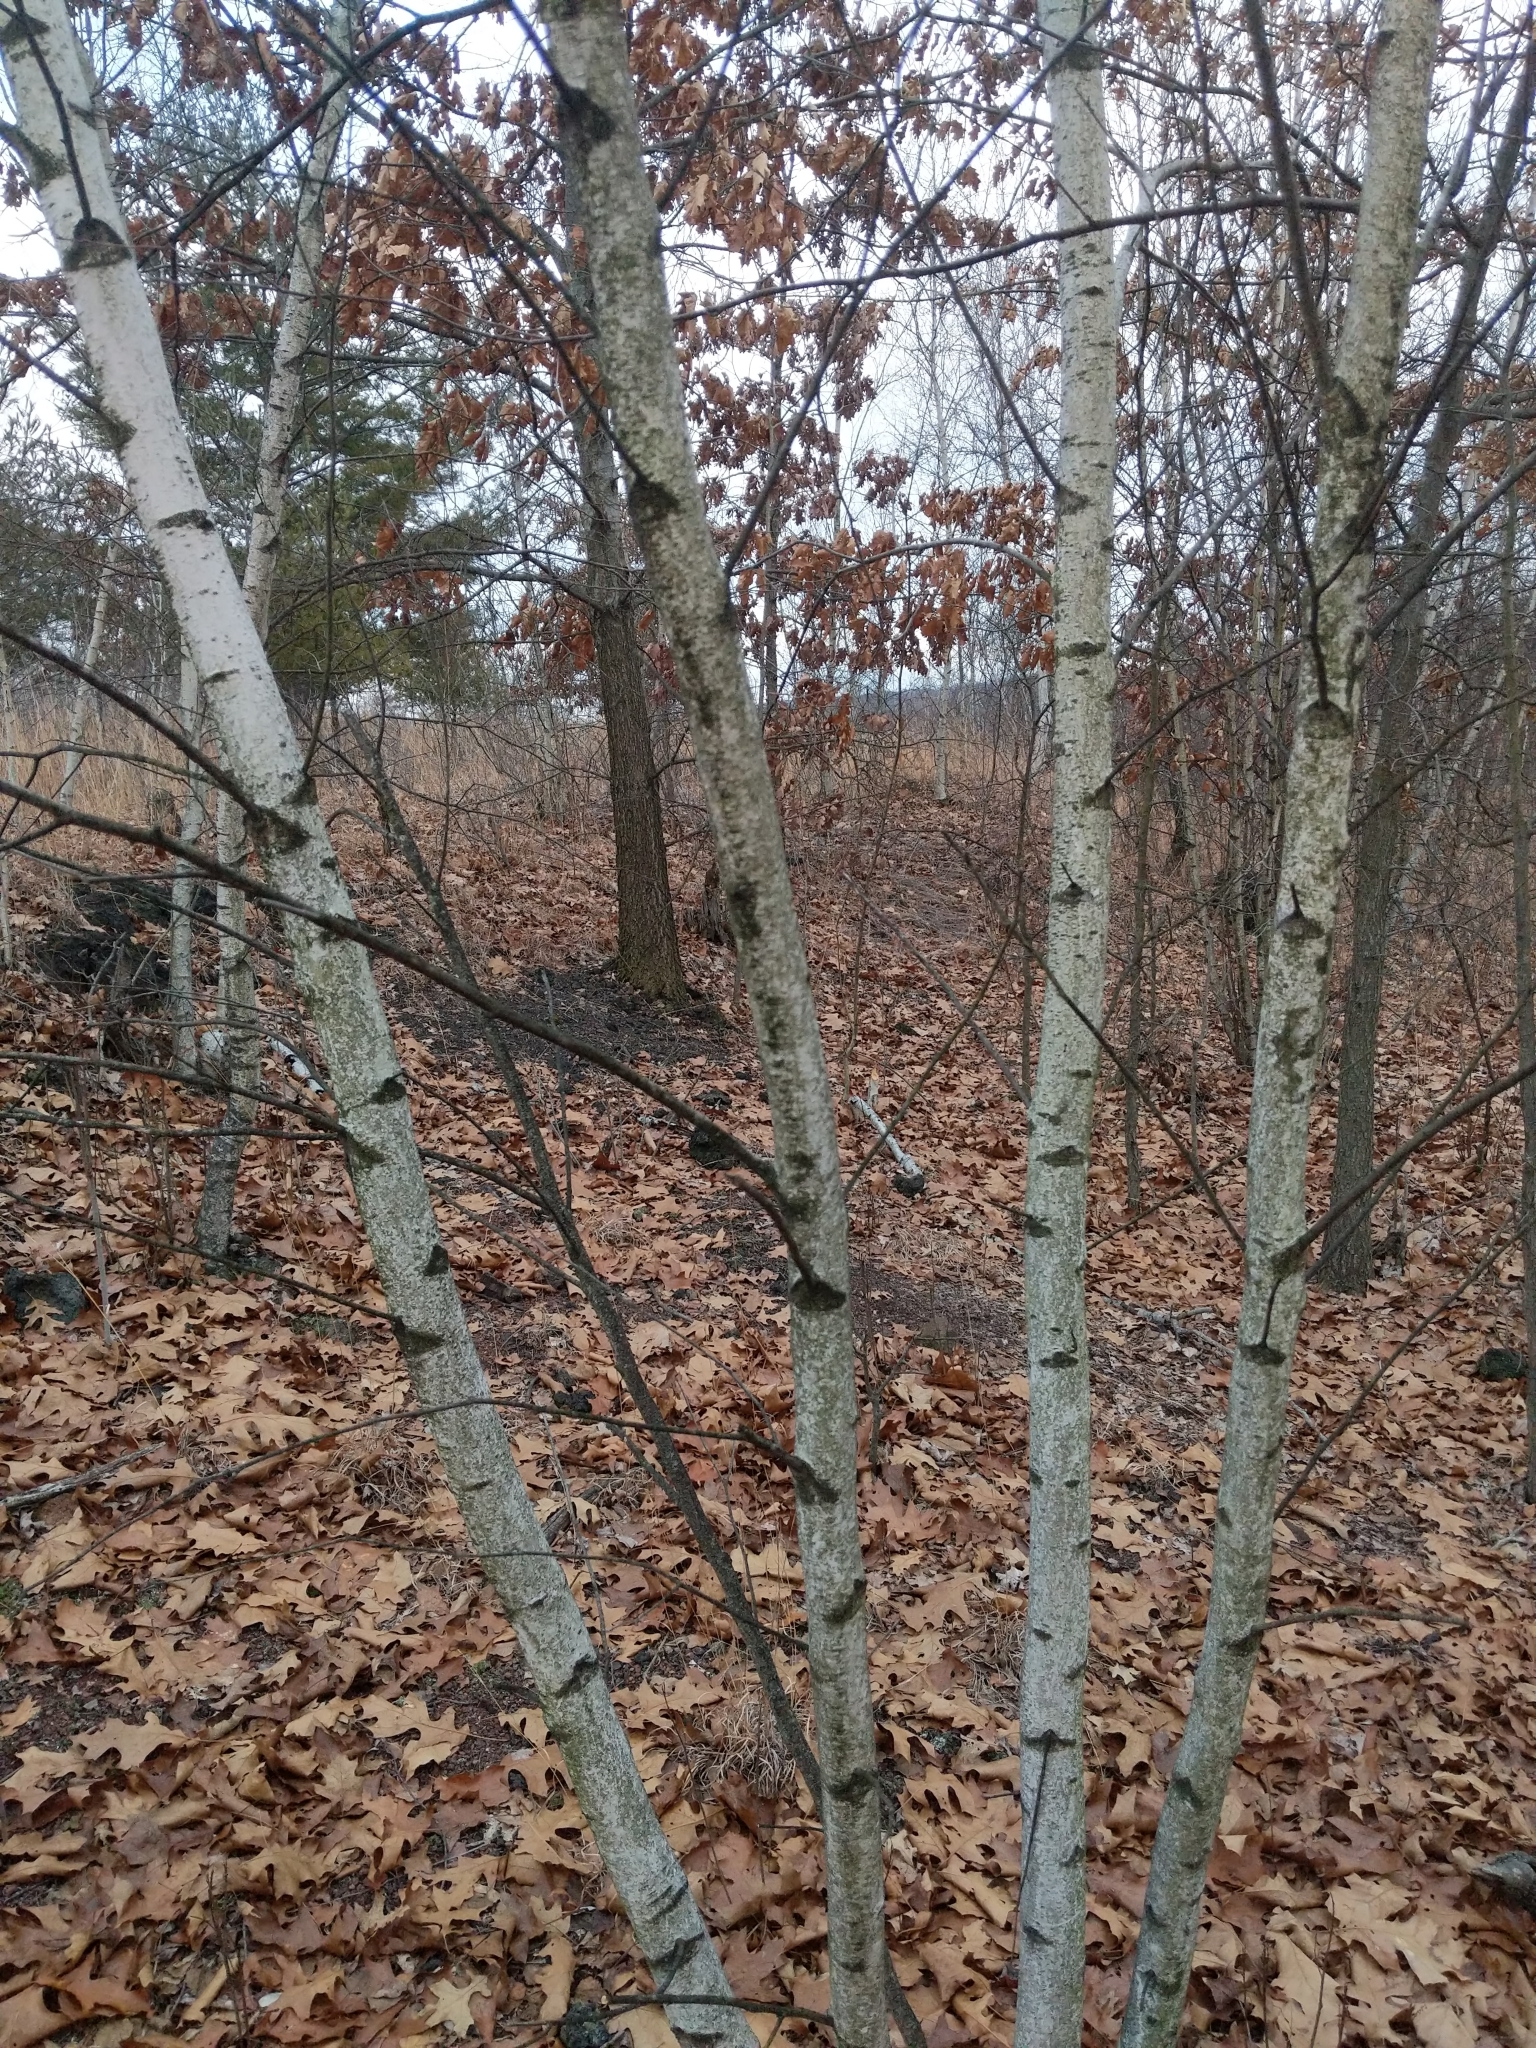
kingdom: Plantae
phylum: Tracheophyta
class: Magnoliopsida
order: Fagales
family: Betulaceae
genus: Betula
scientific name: Betula populifolia
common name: Fire birch
